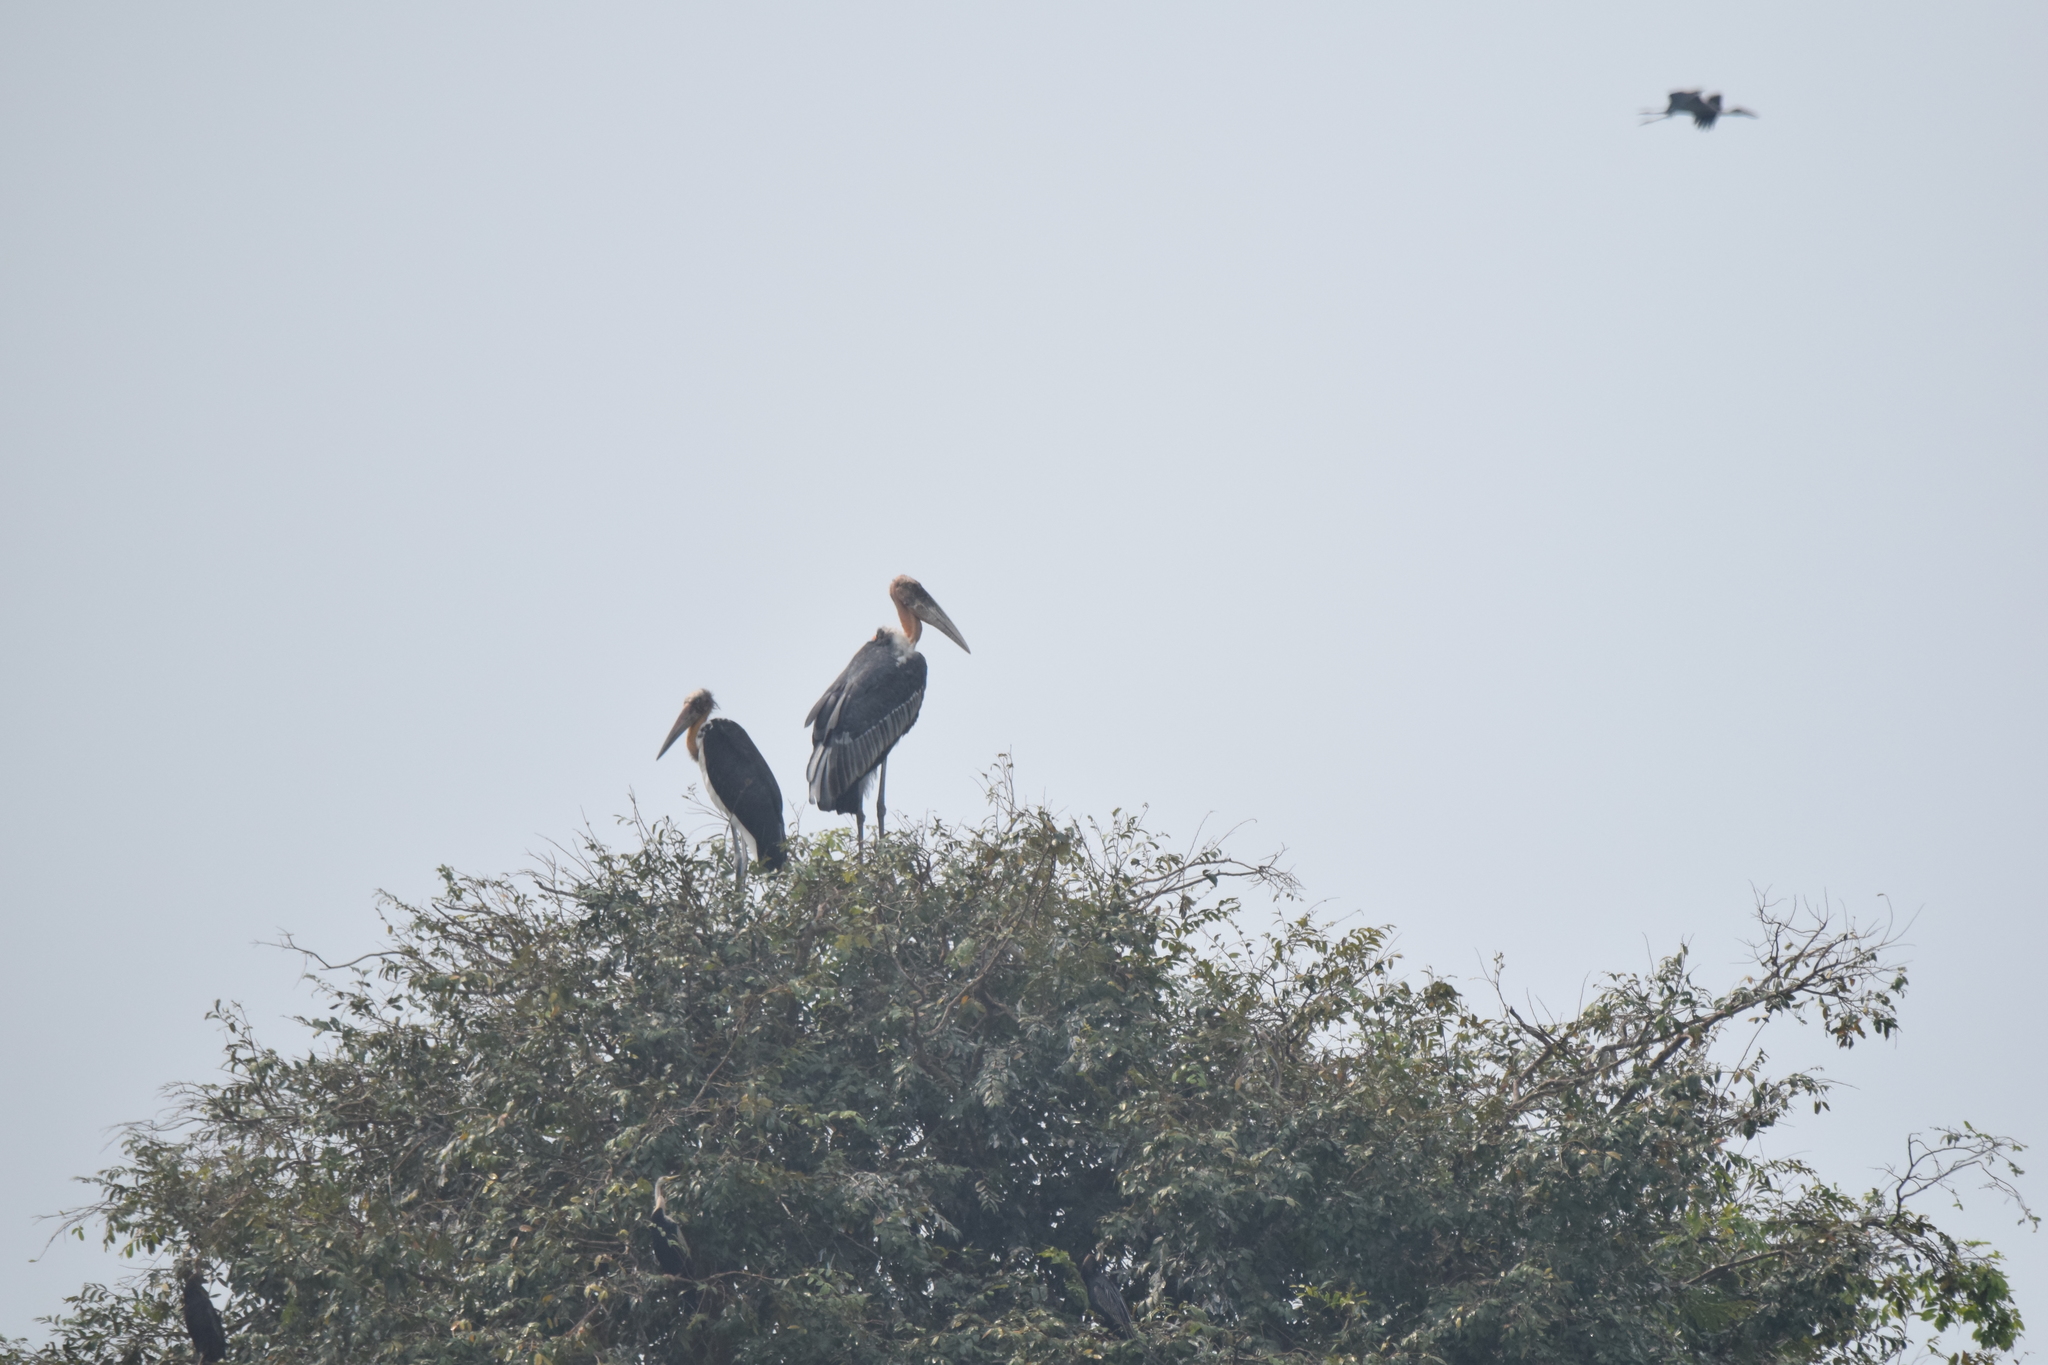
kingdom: Animalia
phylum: Chordata
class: Aves
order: Ciconiiformes
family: Ciconiidae
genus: Leptoptilos
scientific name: Leptoptilos javanicus
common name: Lesser adjutant
